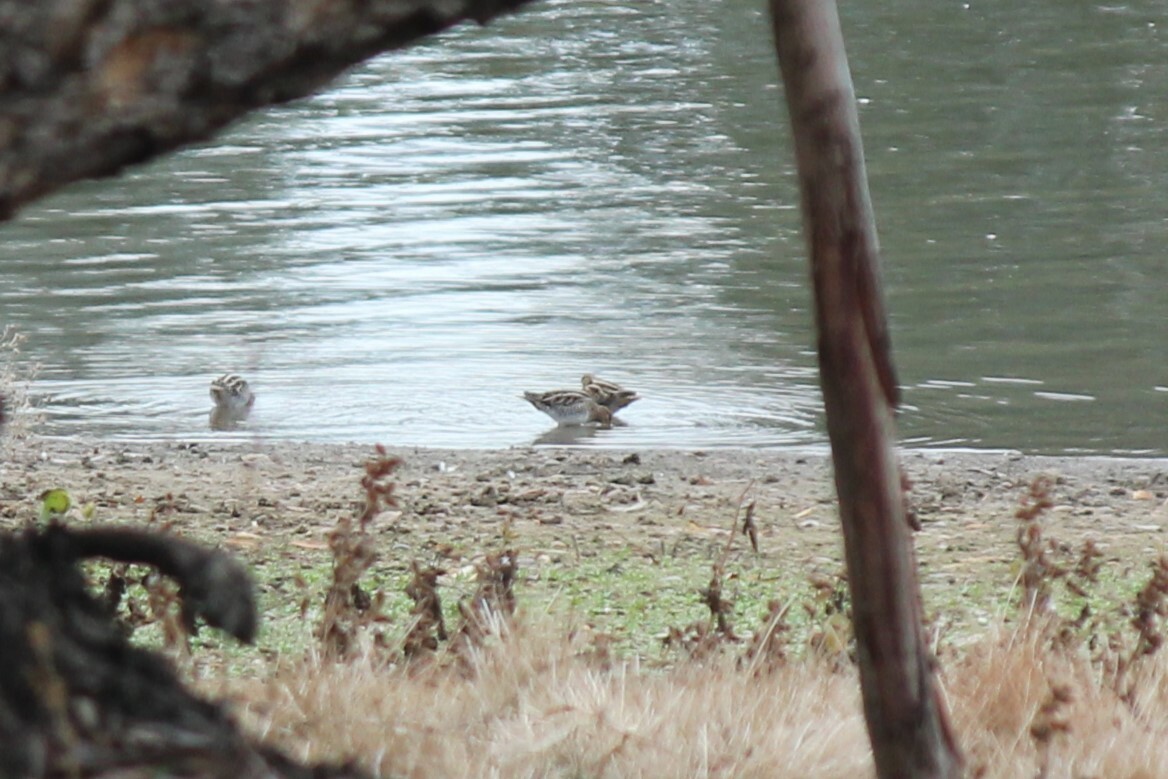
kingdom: Animalia
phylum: Chordata
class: Aves
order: Charadriiformes
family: Scolopacidae
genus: Gallinago
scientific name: Gallinago delicata
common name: Wilson's snipe
